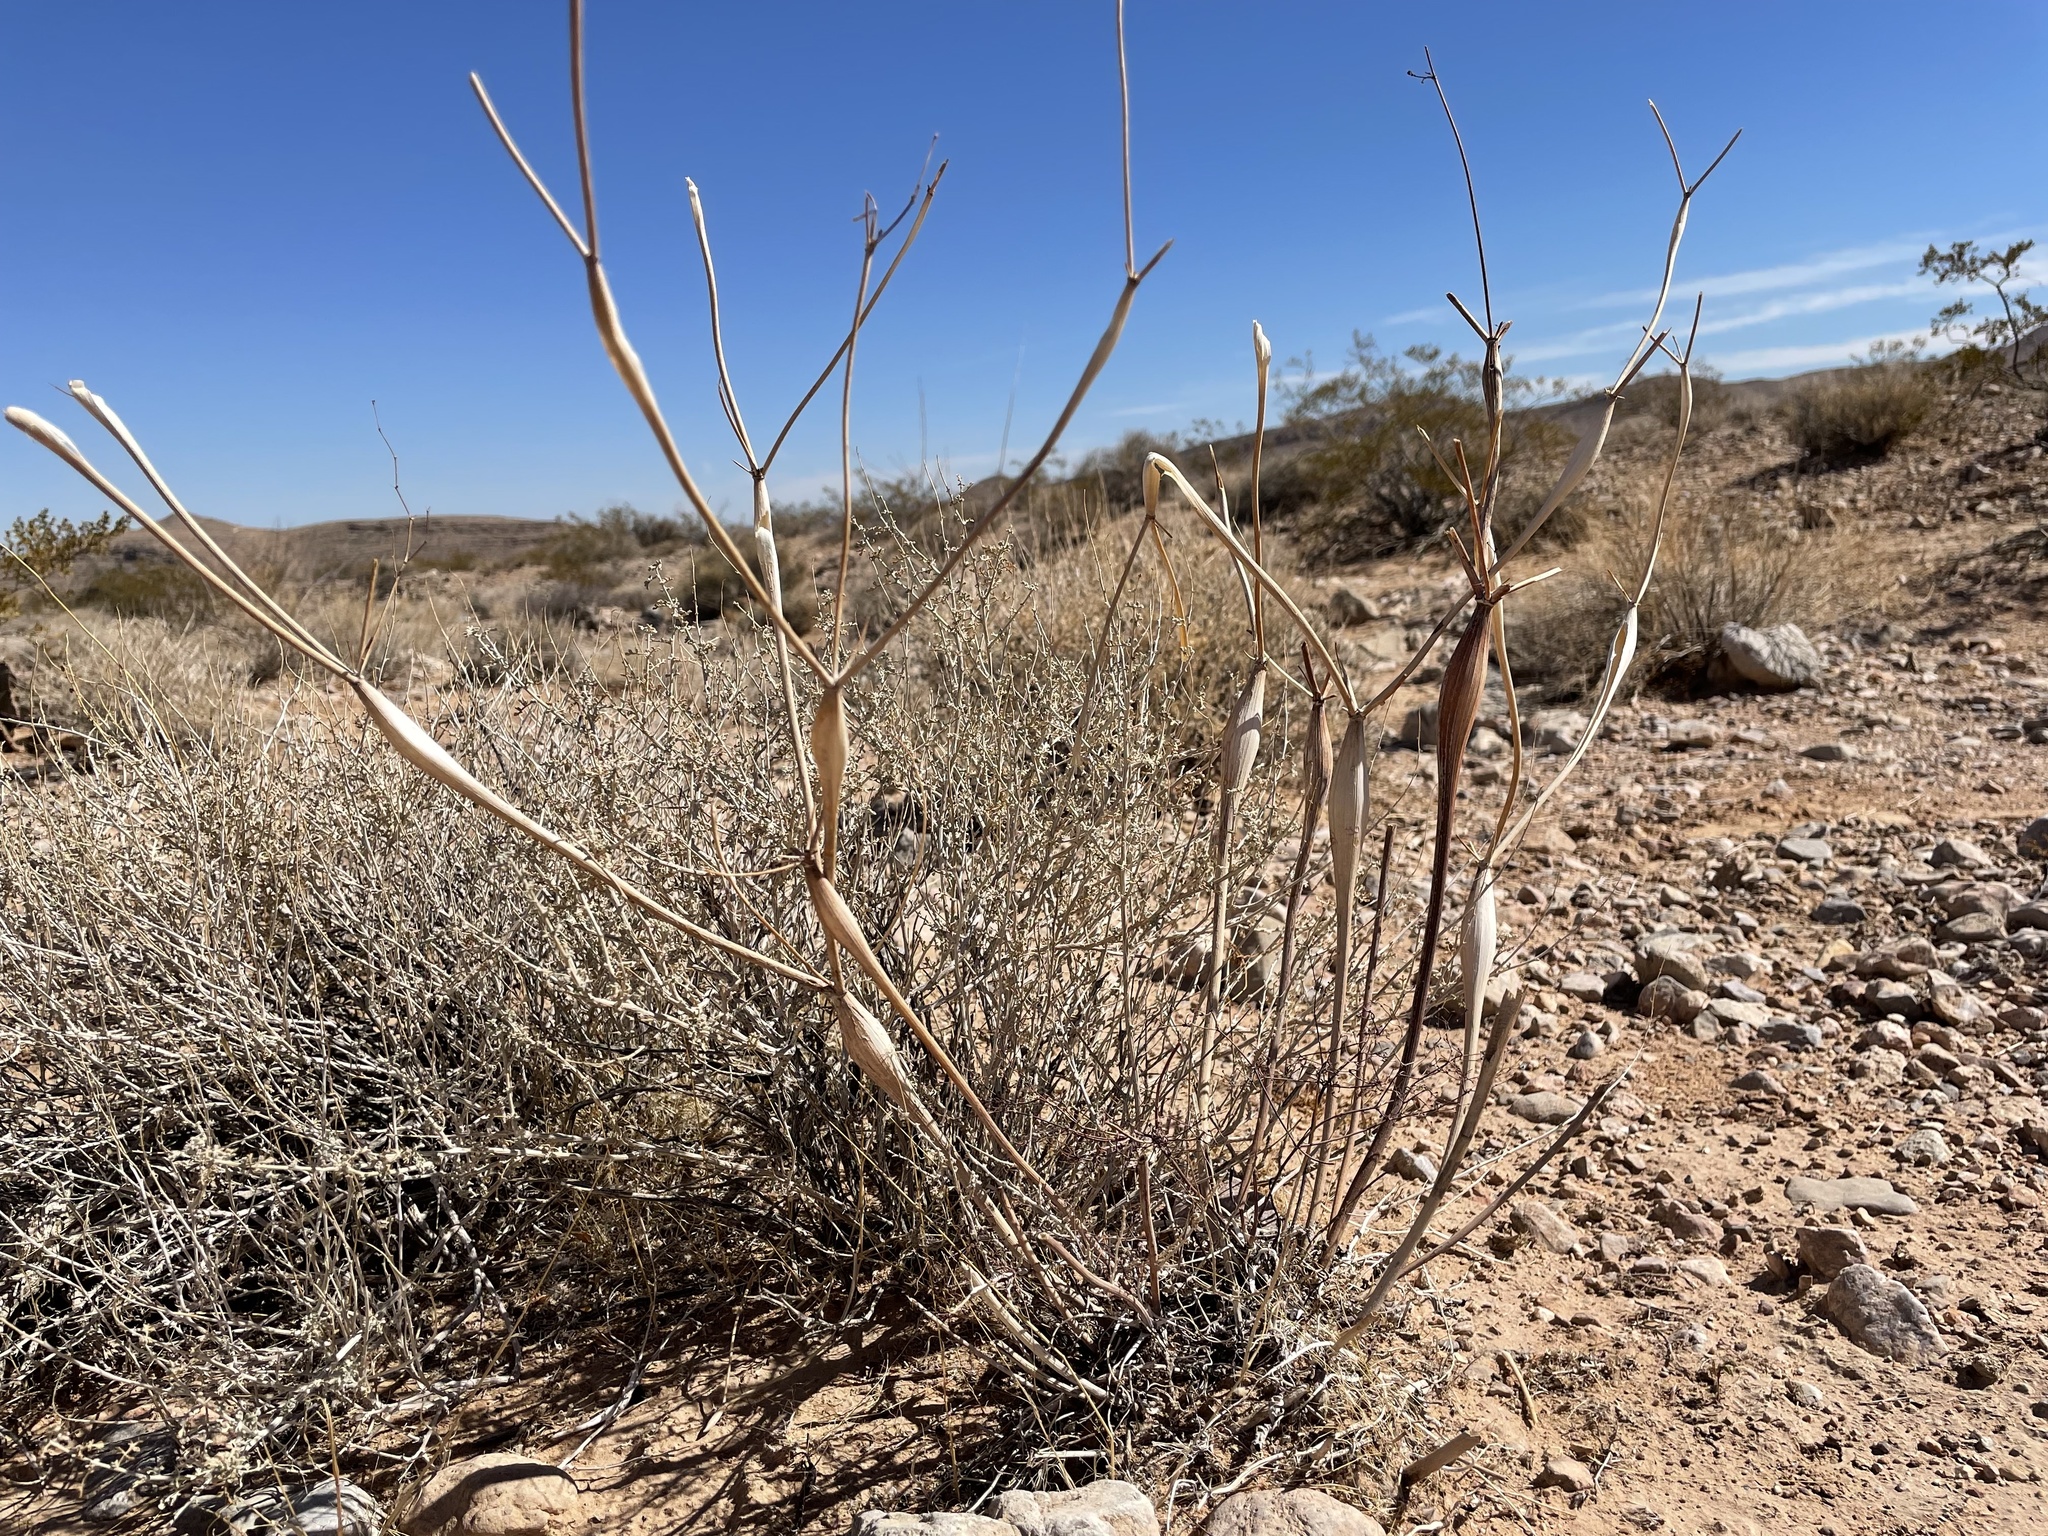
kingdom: Plantae
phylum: Tracheophyta
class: Magnoliopsida
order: Caryophyllales
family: Polygonaceae
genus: Eriogonum
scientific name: Eriogonum inflatum
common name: Desert trumpet
